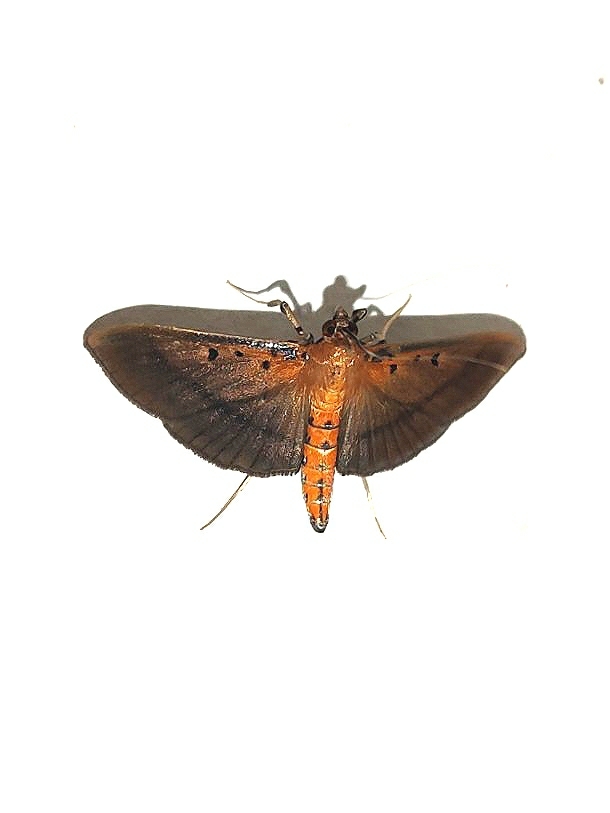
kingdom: Animalia
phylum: Arthropoda
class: Insecta
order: Lepidoptera
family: Crambidae
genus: Filodes
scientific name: Filodes fulvidorsalis
